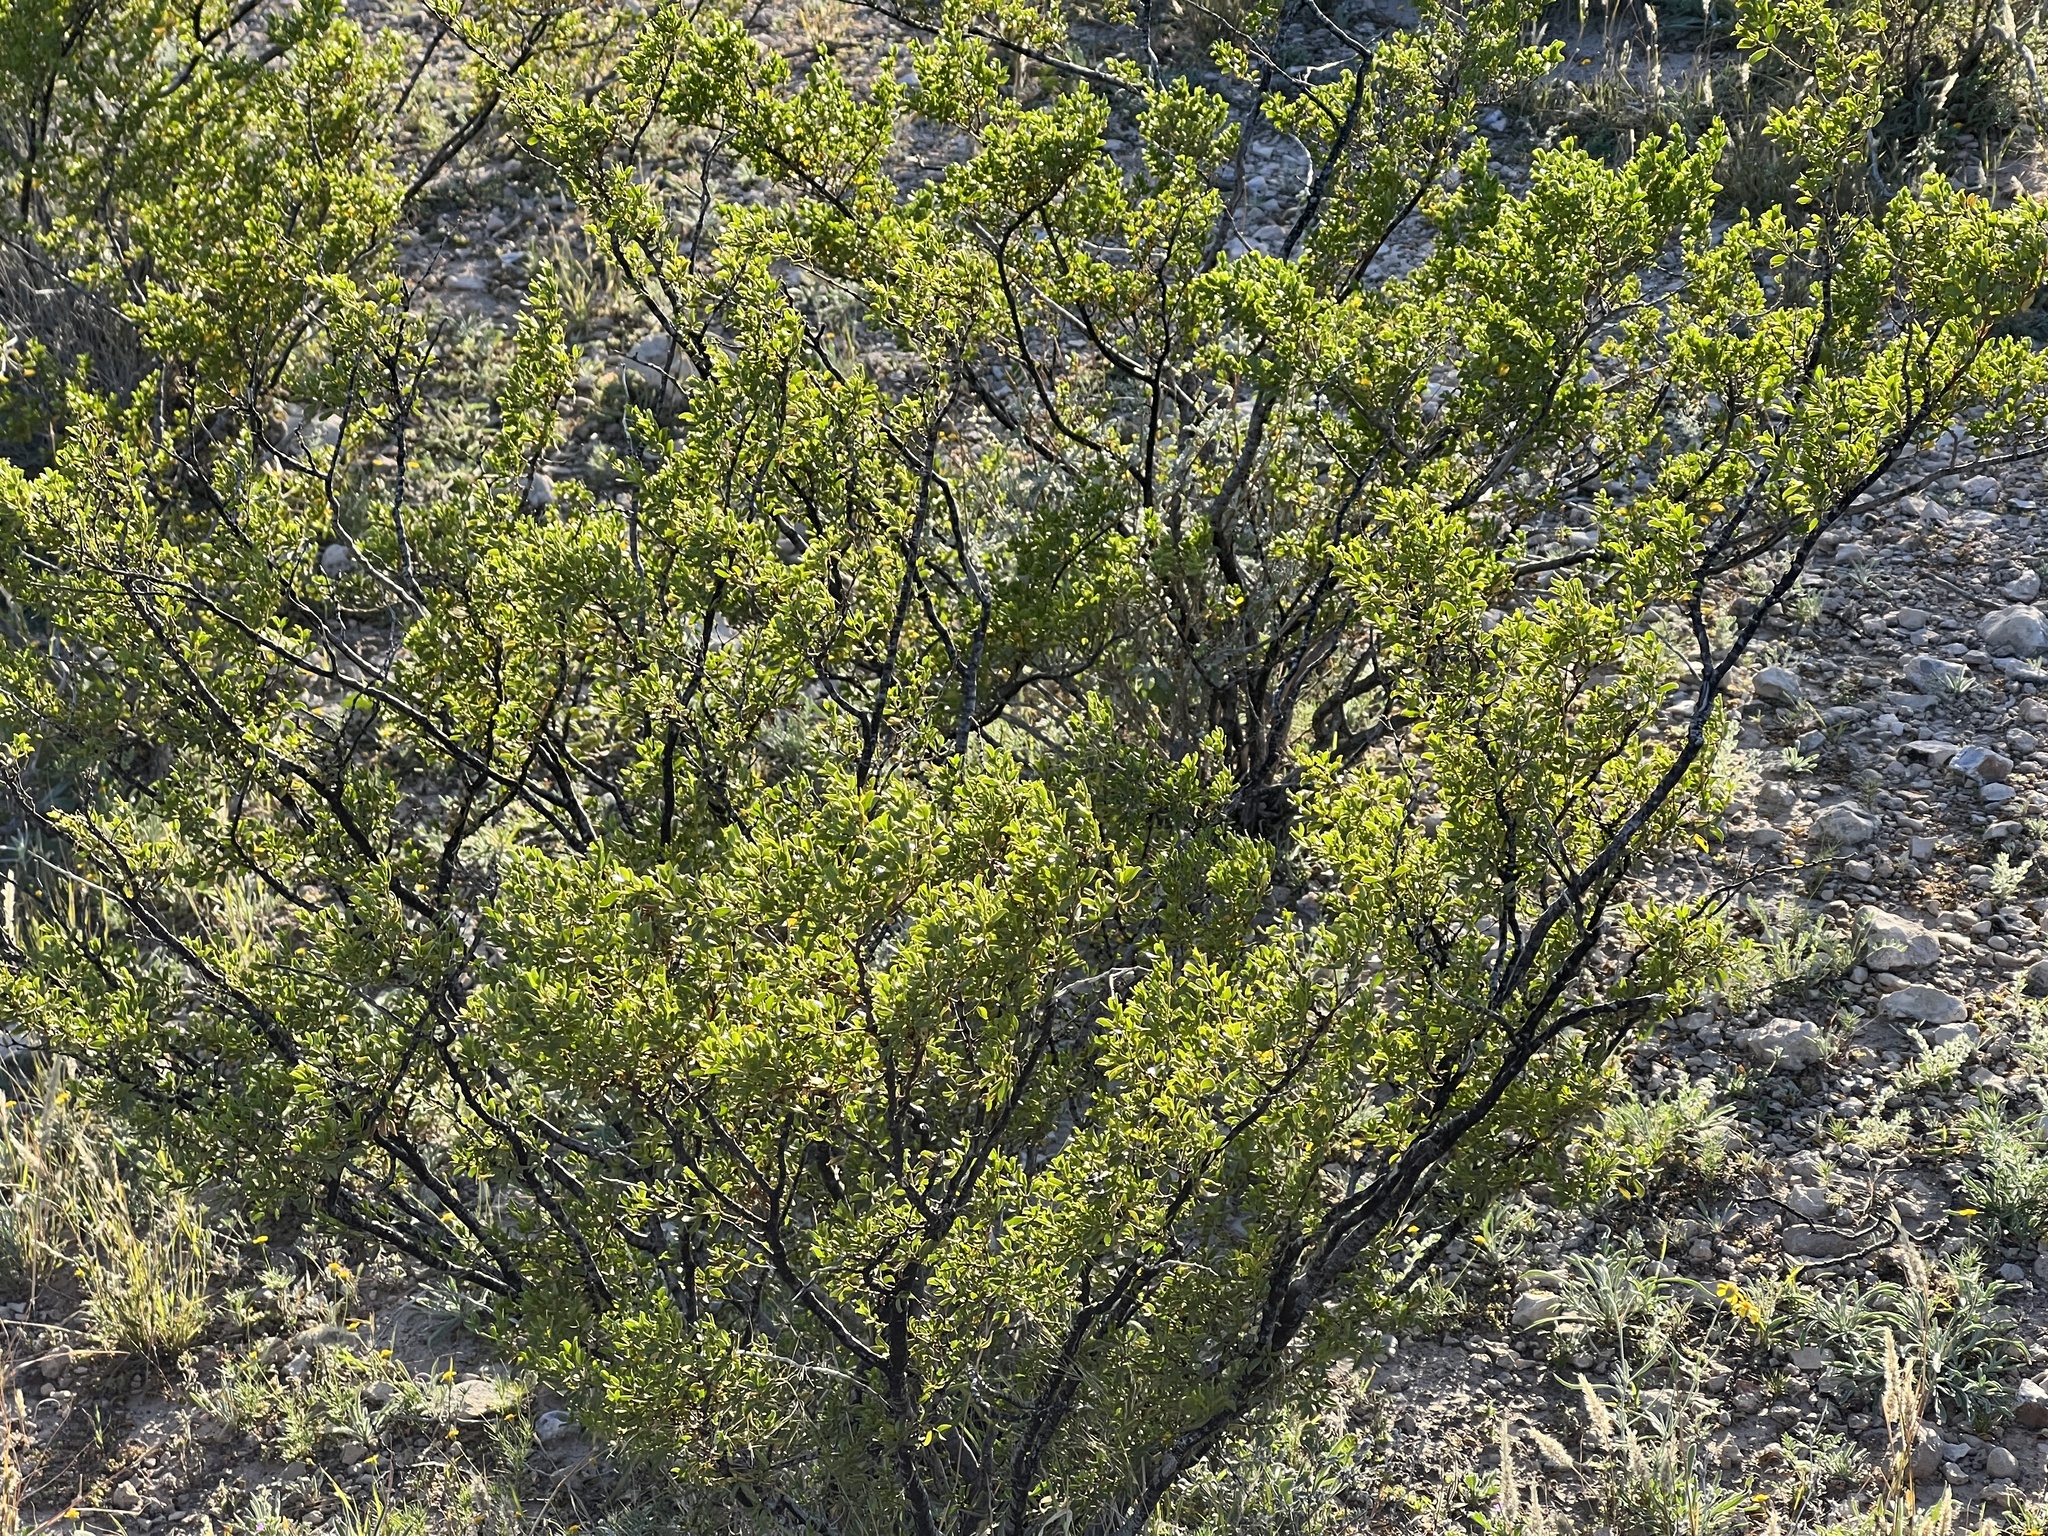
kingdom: Plantae
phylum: Tracheophyta
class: Magnoliopsida
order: Zygophyllales
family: Zygophyllaceae
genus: Larrea
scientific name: Larrea tridentata
